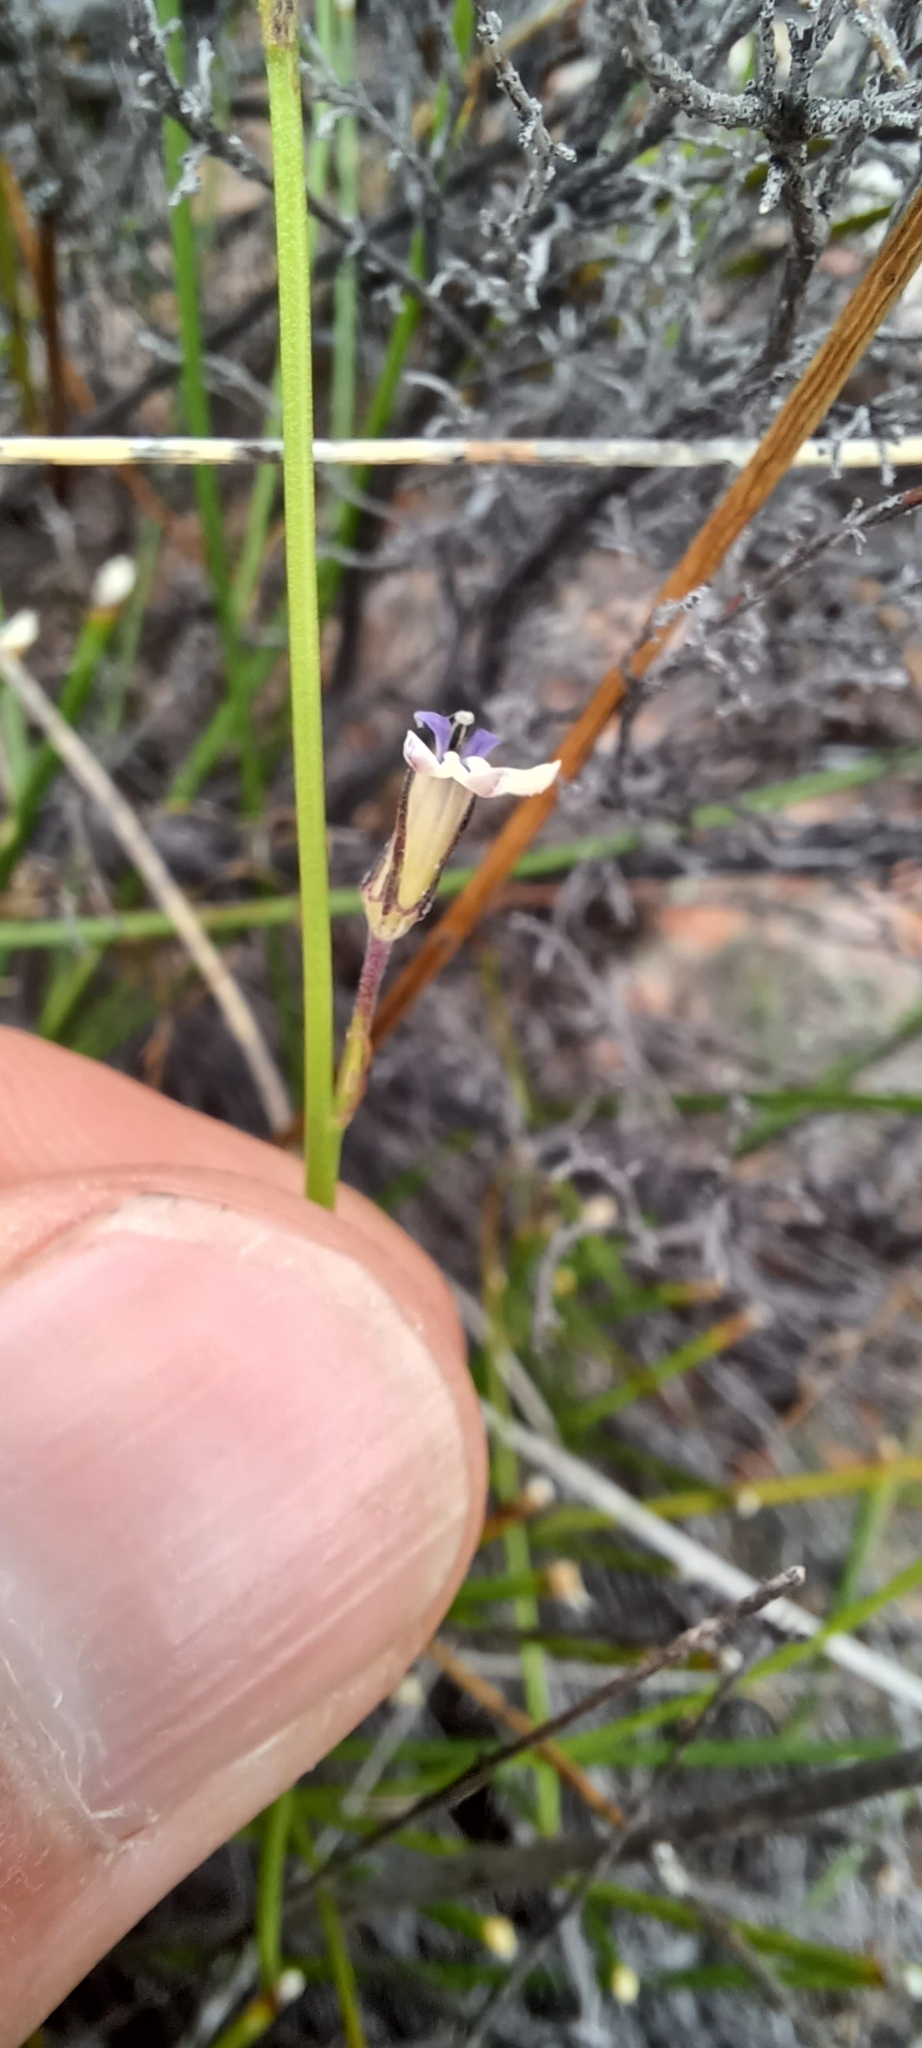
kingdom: Plantae
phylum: Tracheophyta
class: Magnoliopsida
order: Asterales
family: Campanulaceae
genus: Lobelia
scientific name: Lobelia linearis
